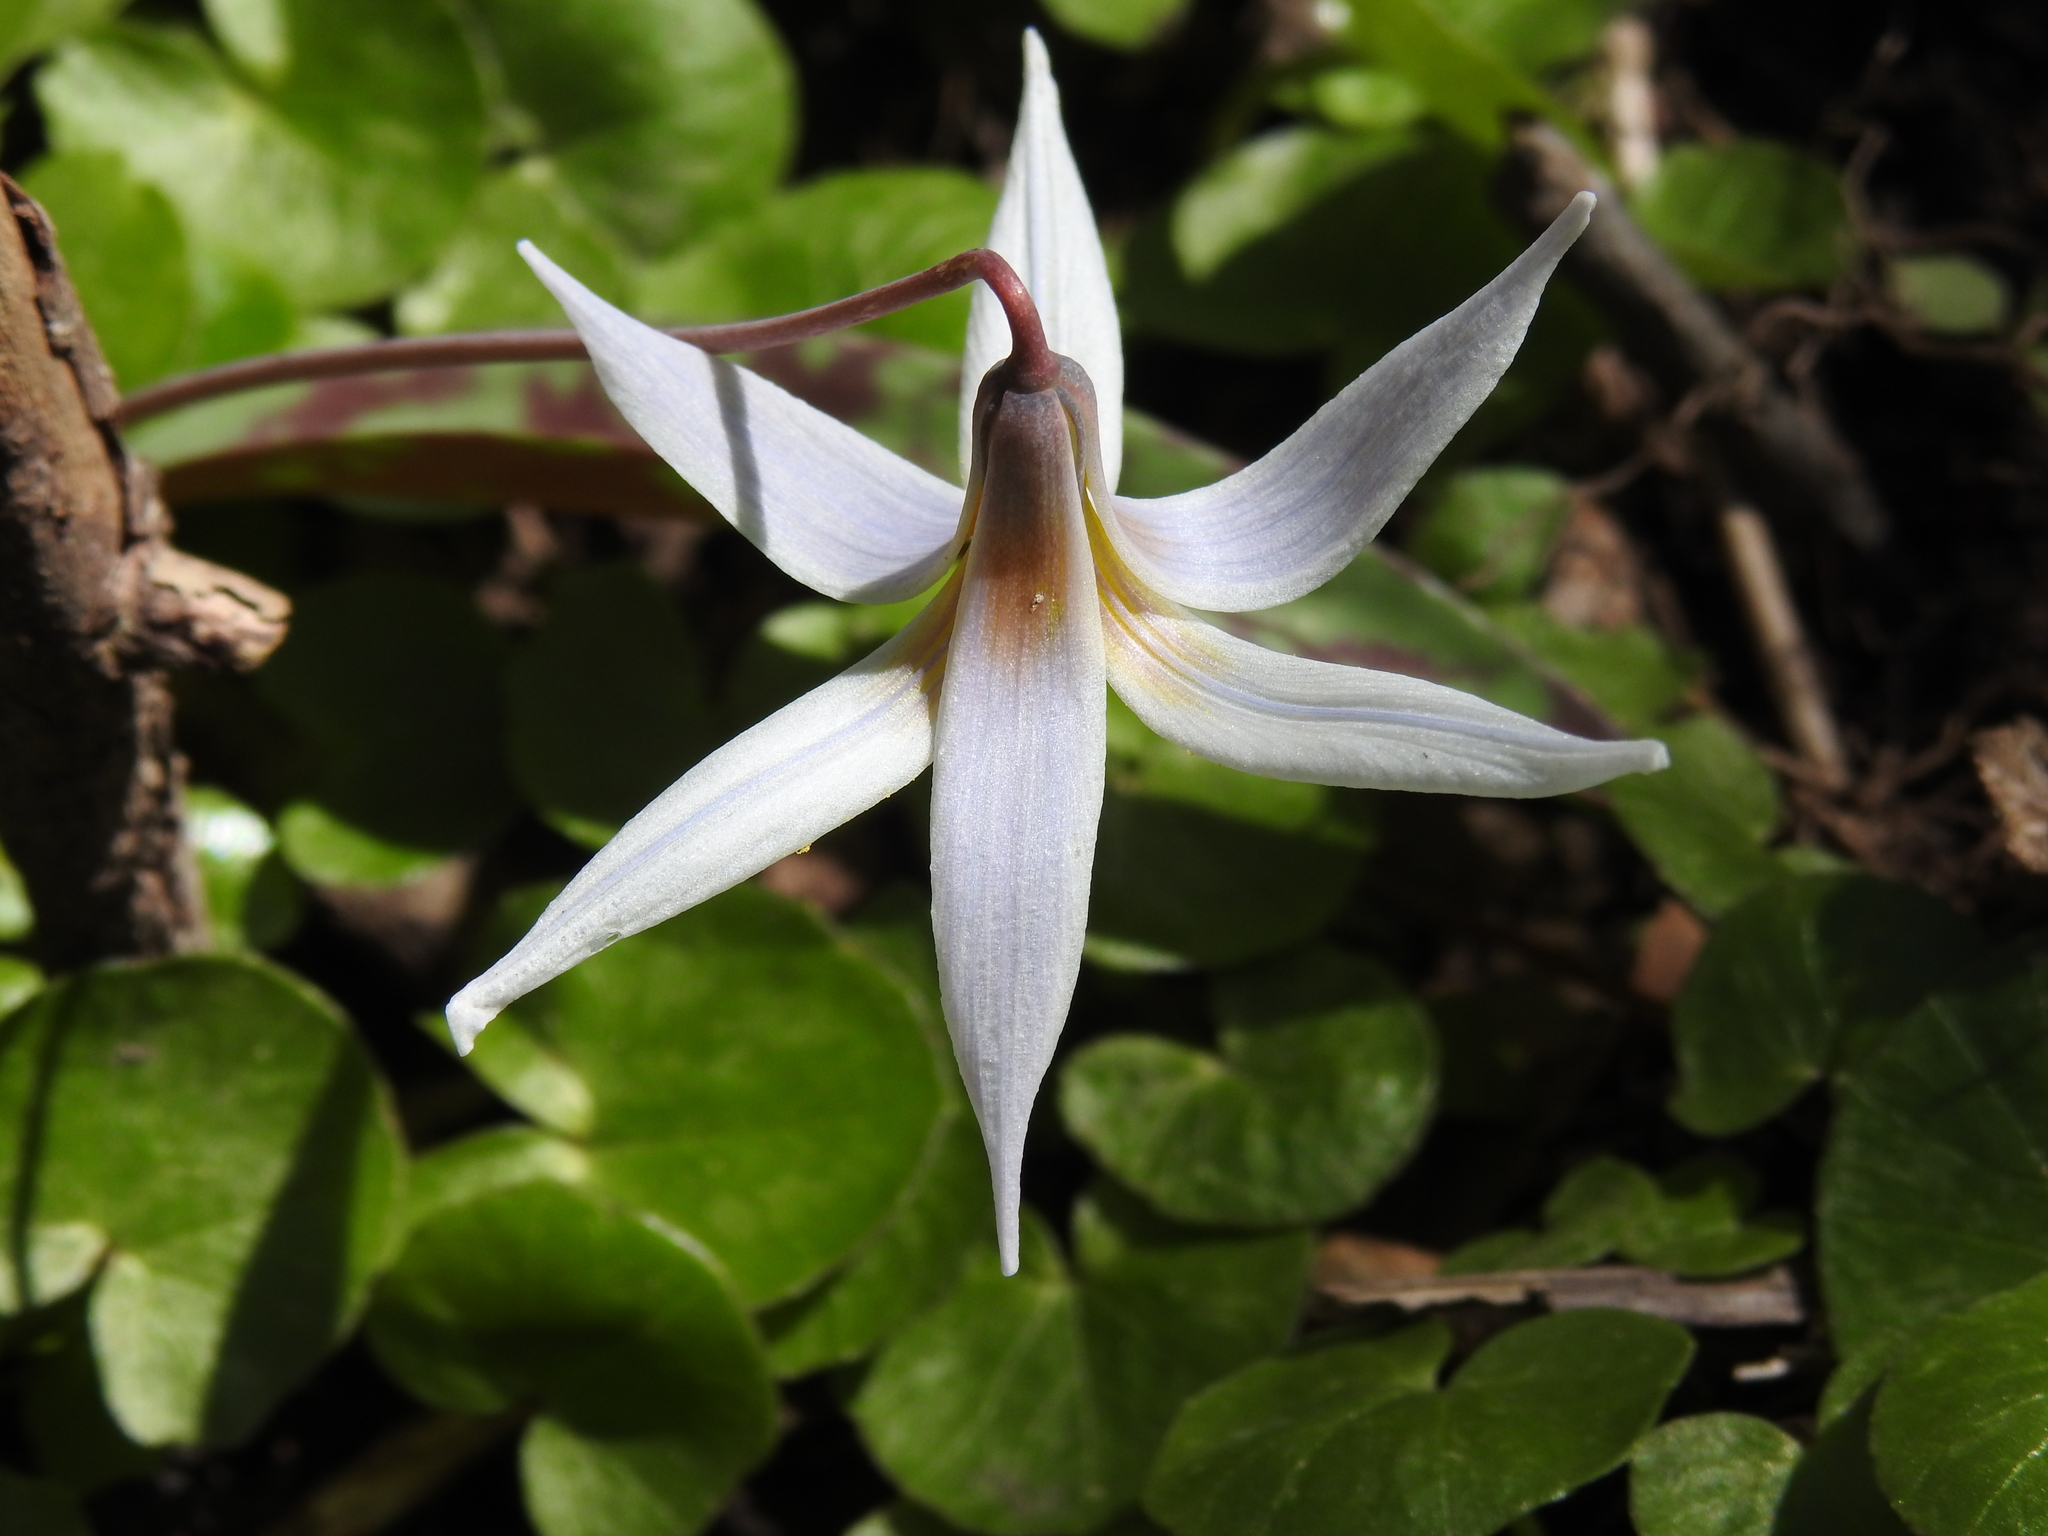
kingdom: Plantae
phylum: Tracheophyta
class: Liliopsida
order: Liliales
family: Liliaceae
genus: Erythronium
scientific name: Erythronium albidum
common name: White trout-lily
